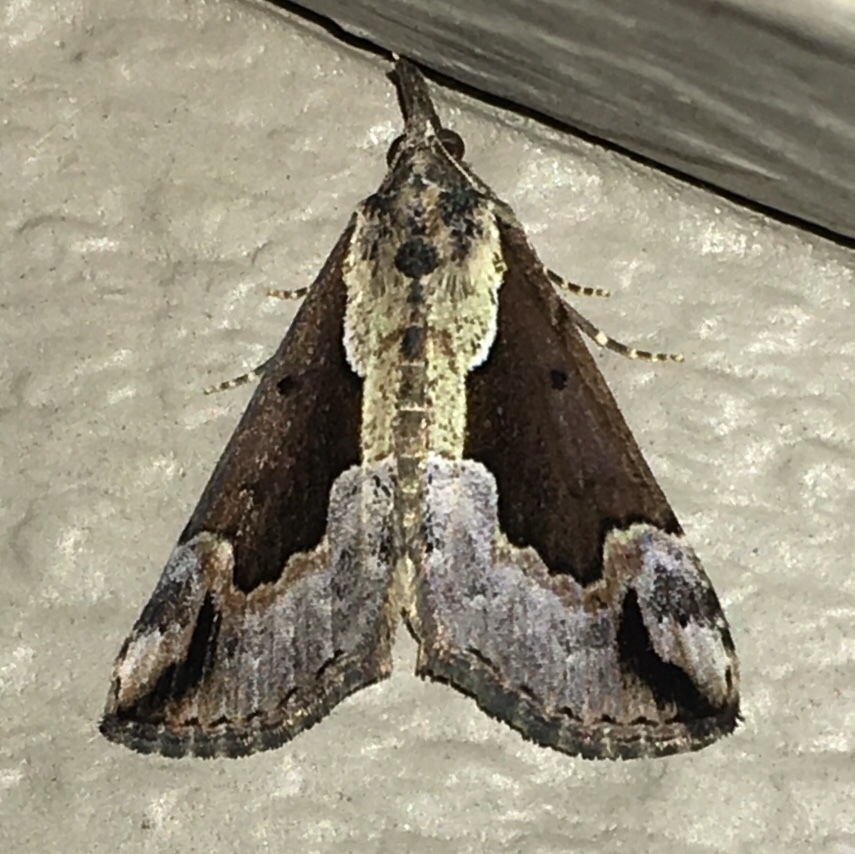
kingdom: Animalia
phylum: Arthropoda
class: Insecta
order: Lepidoptera
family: Erebidae
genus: Hypena
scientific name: Hypena baltimoralis
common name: Baltimore snout
